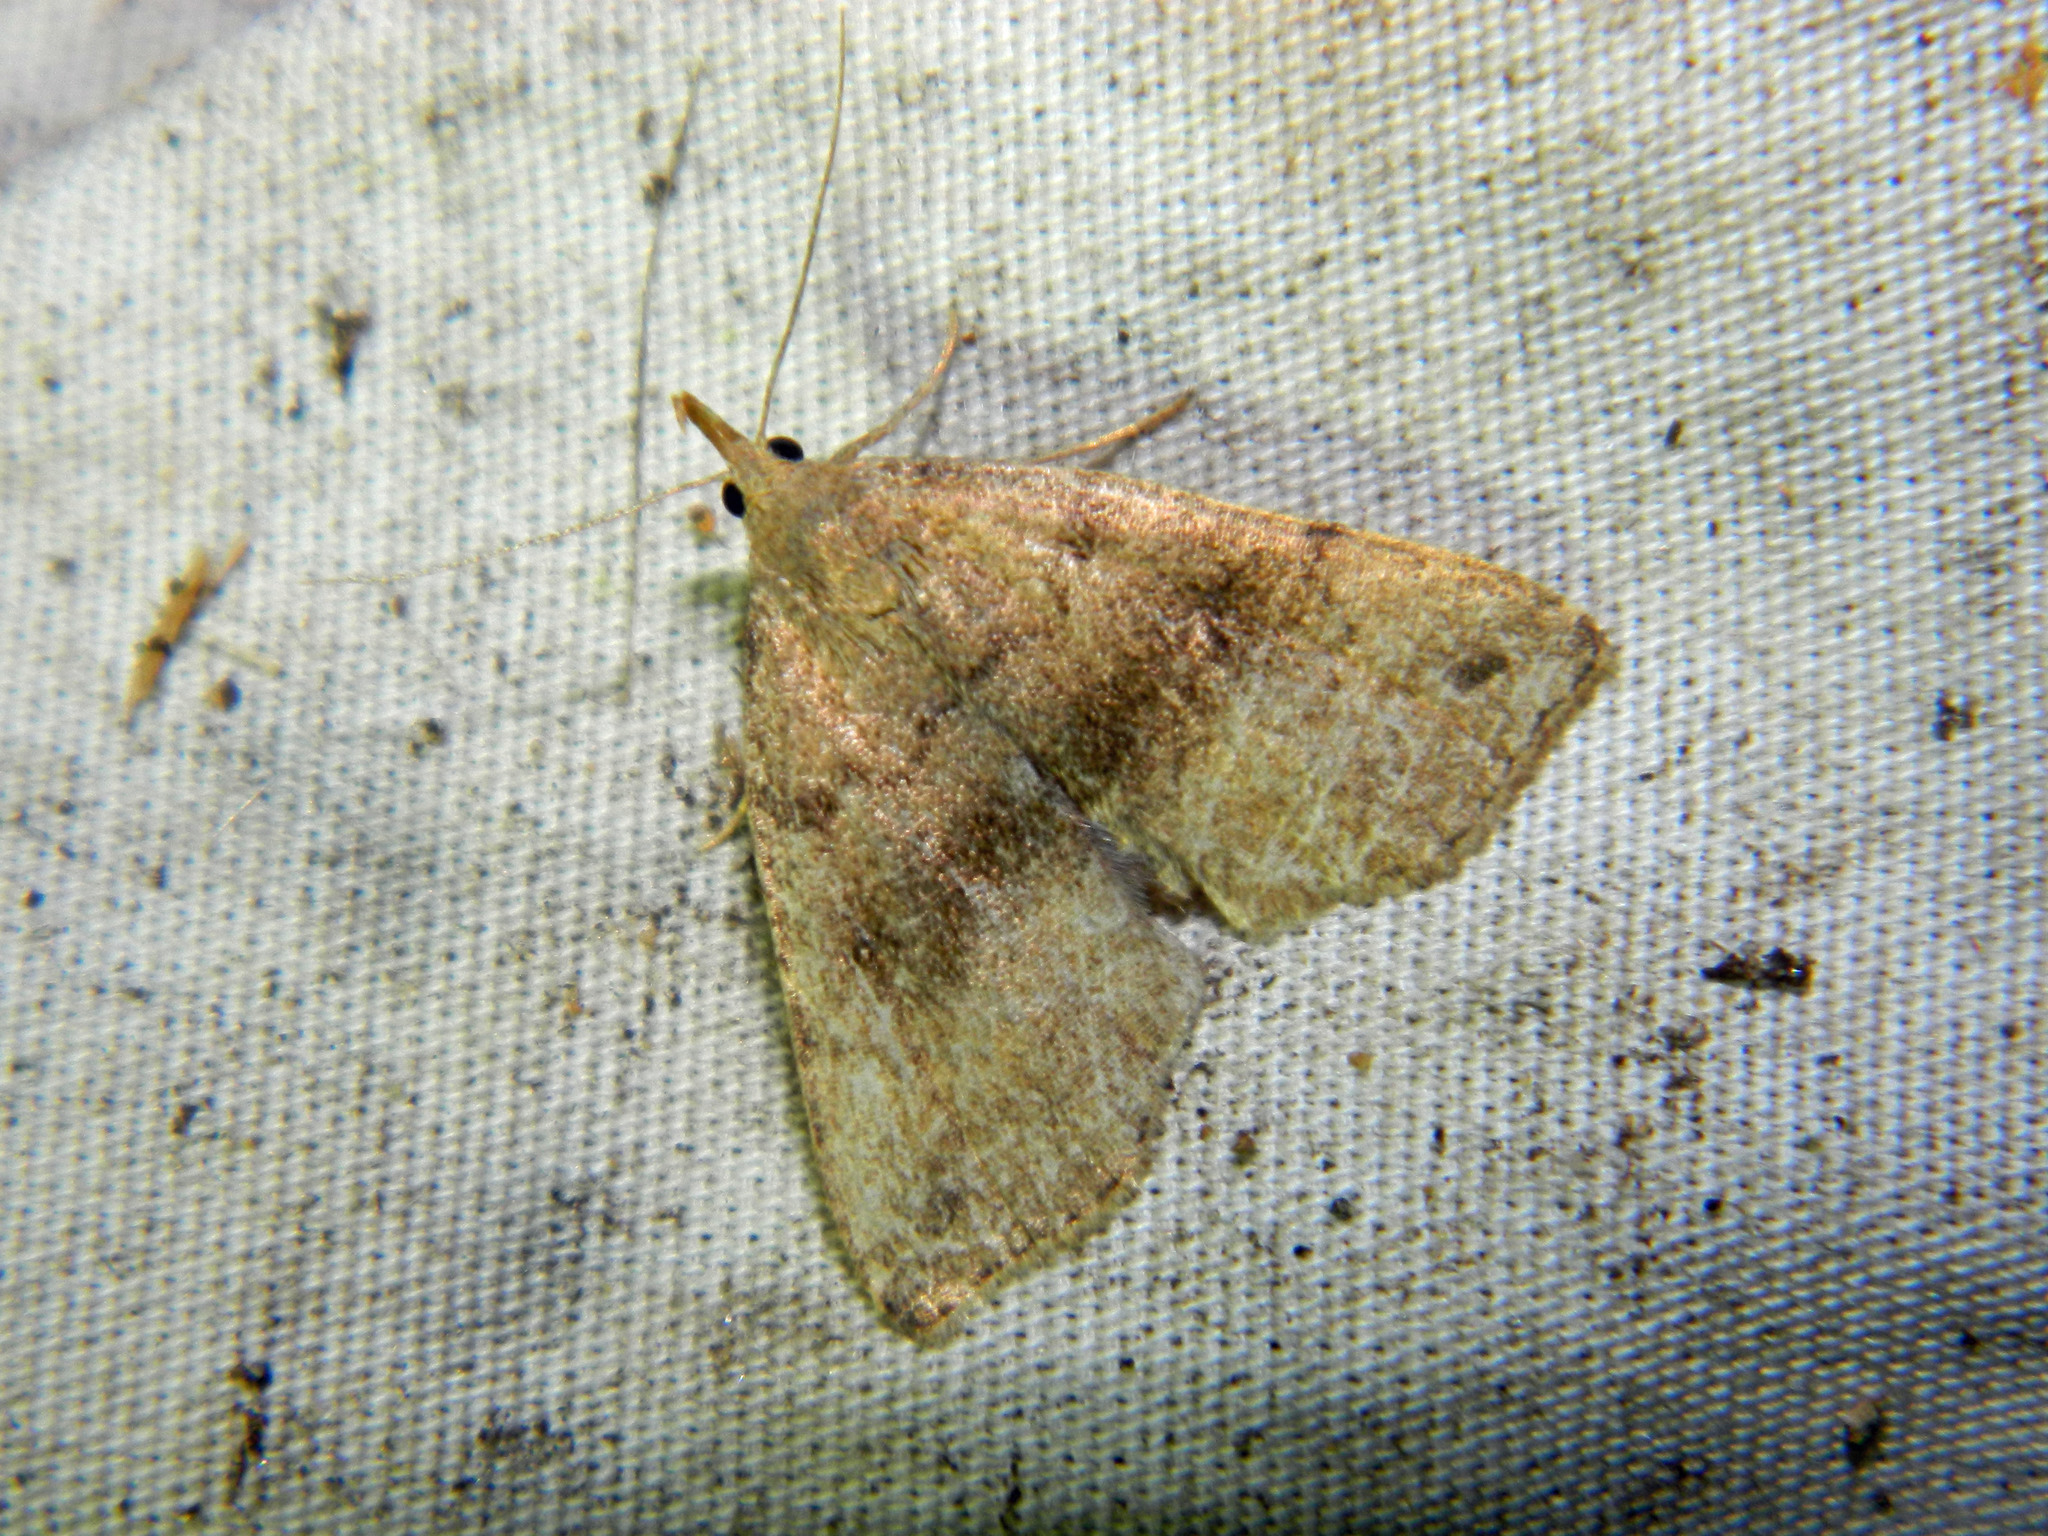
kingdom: Animalia
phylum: Arthropoda
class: Insecta
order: Lepidoptera
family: Erebidae
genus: Phalaenostola
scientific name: Phalaenostola eumelusalis
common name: Dark phalaenostola moth
